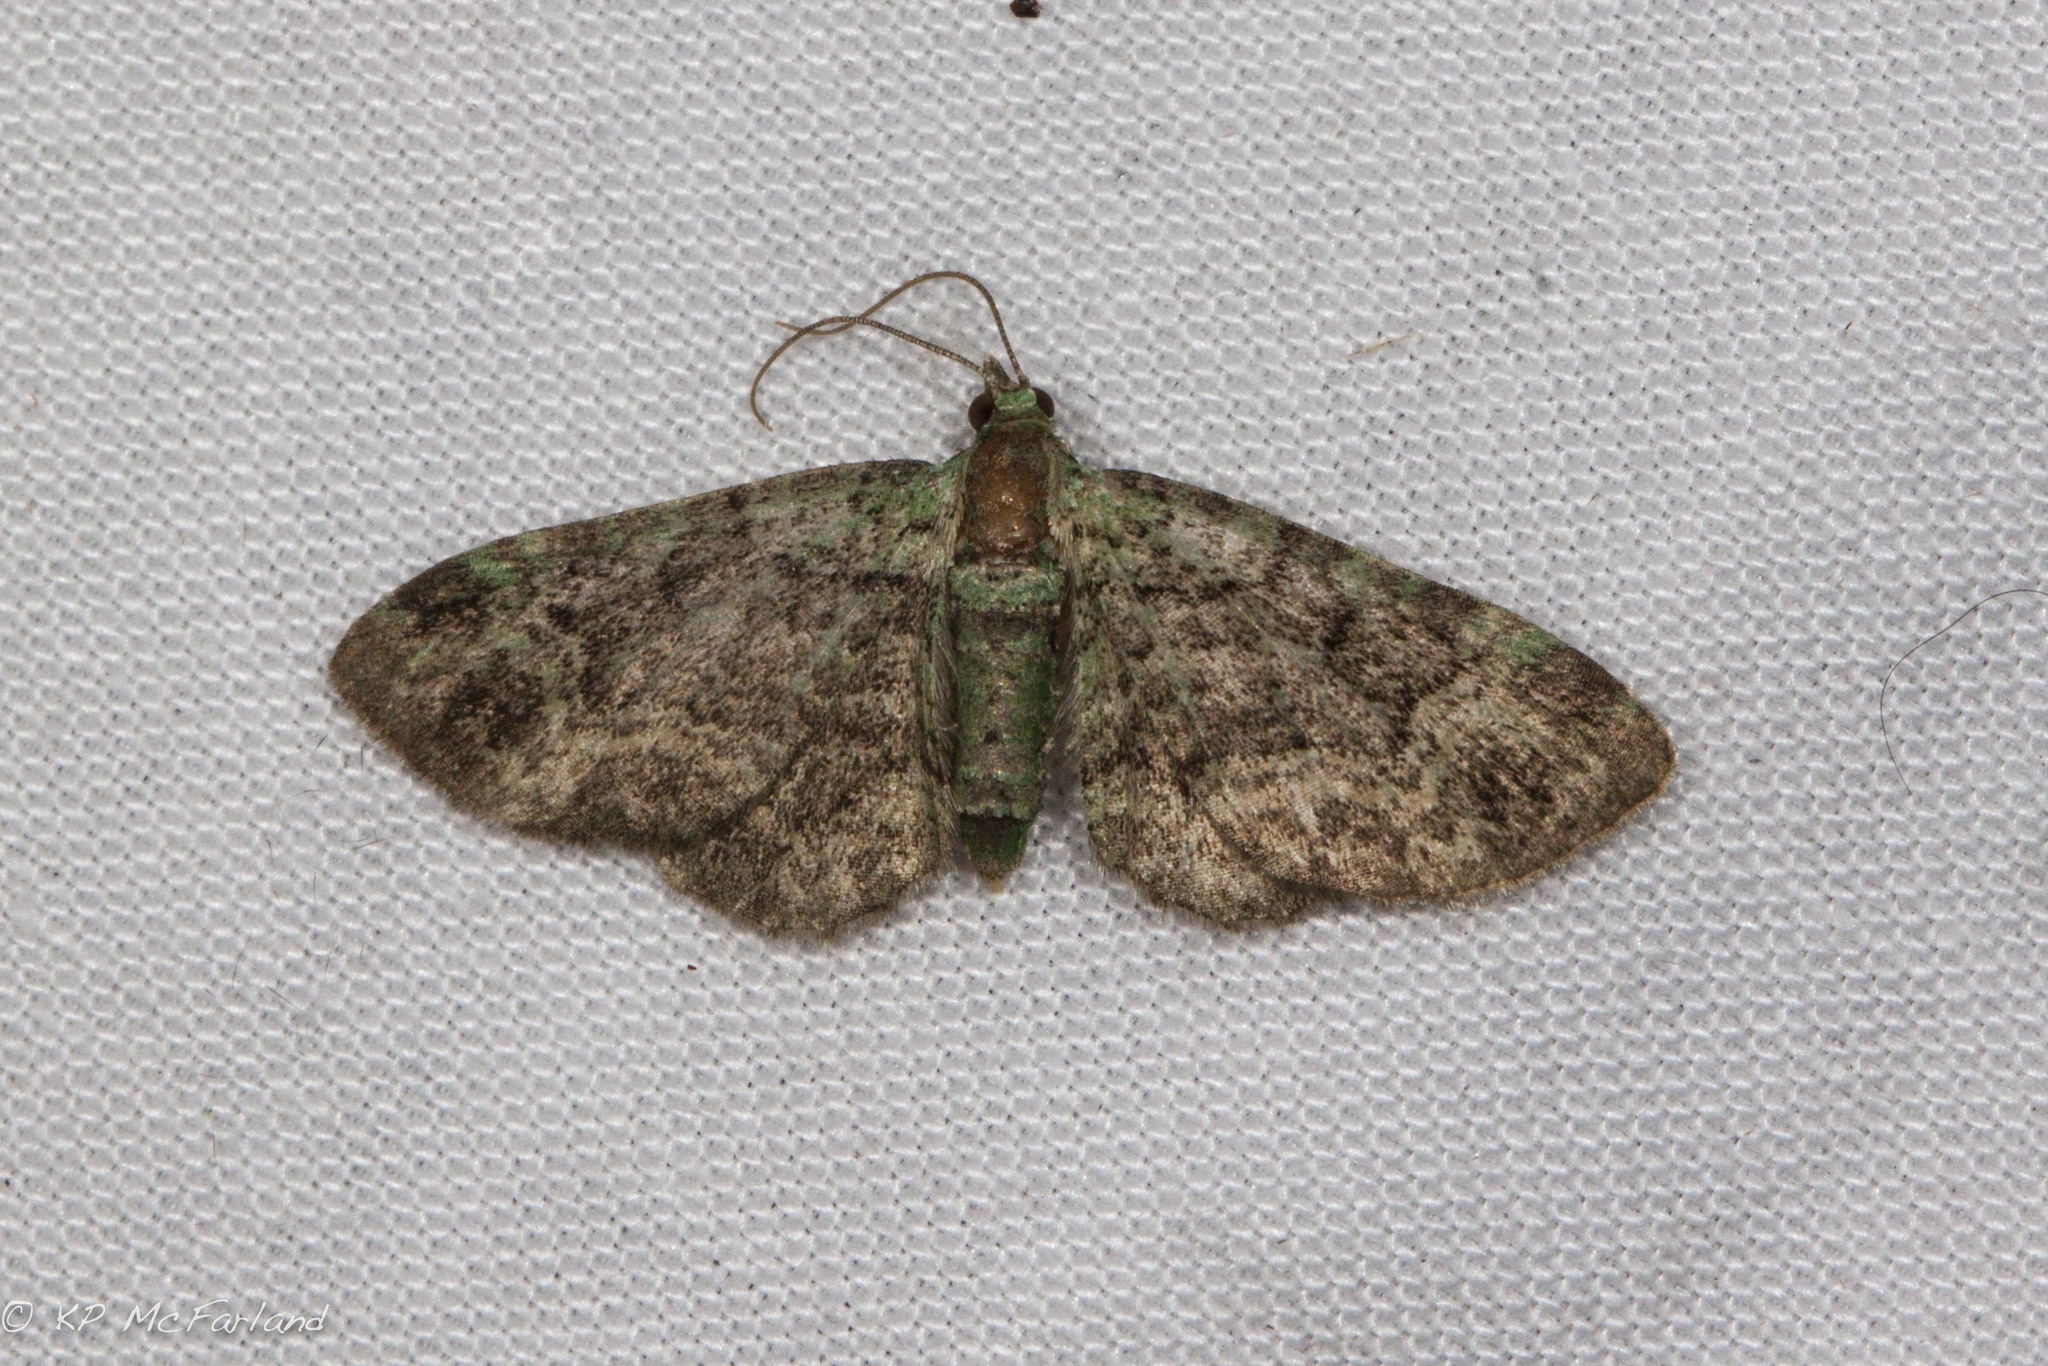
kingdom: Animalia
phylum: Arthropoda
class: Insecta
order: Lepidoptera
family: Geometridae
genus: Pasiphila
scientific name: Pasiphila rectangulata
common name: Green pug
